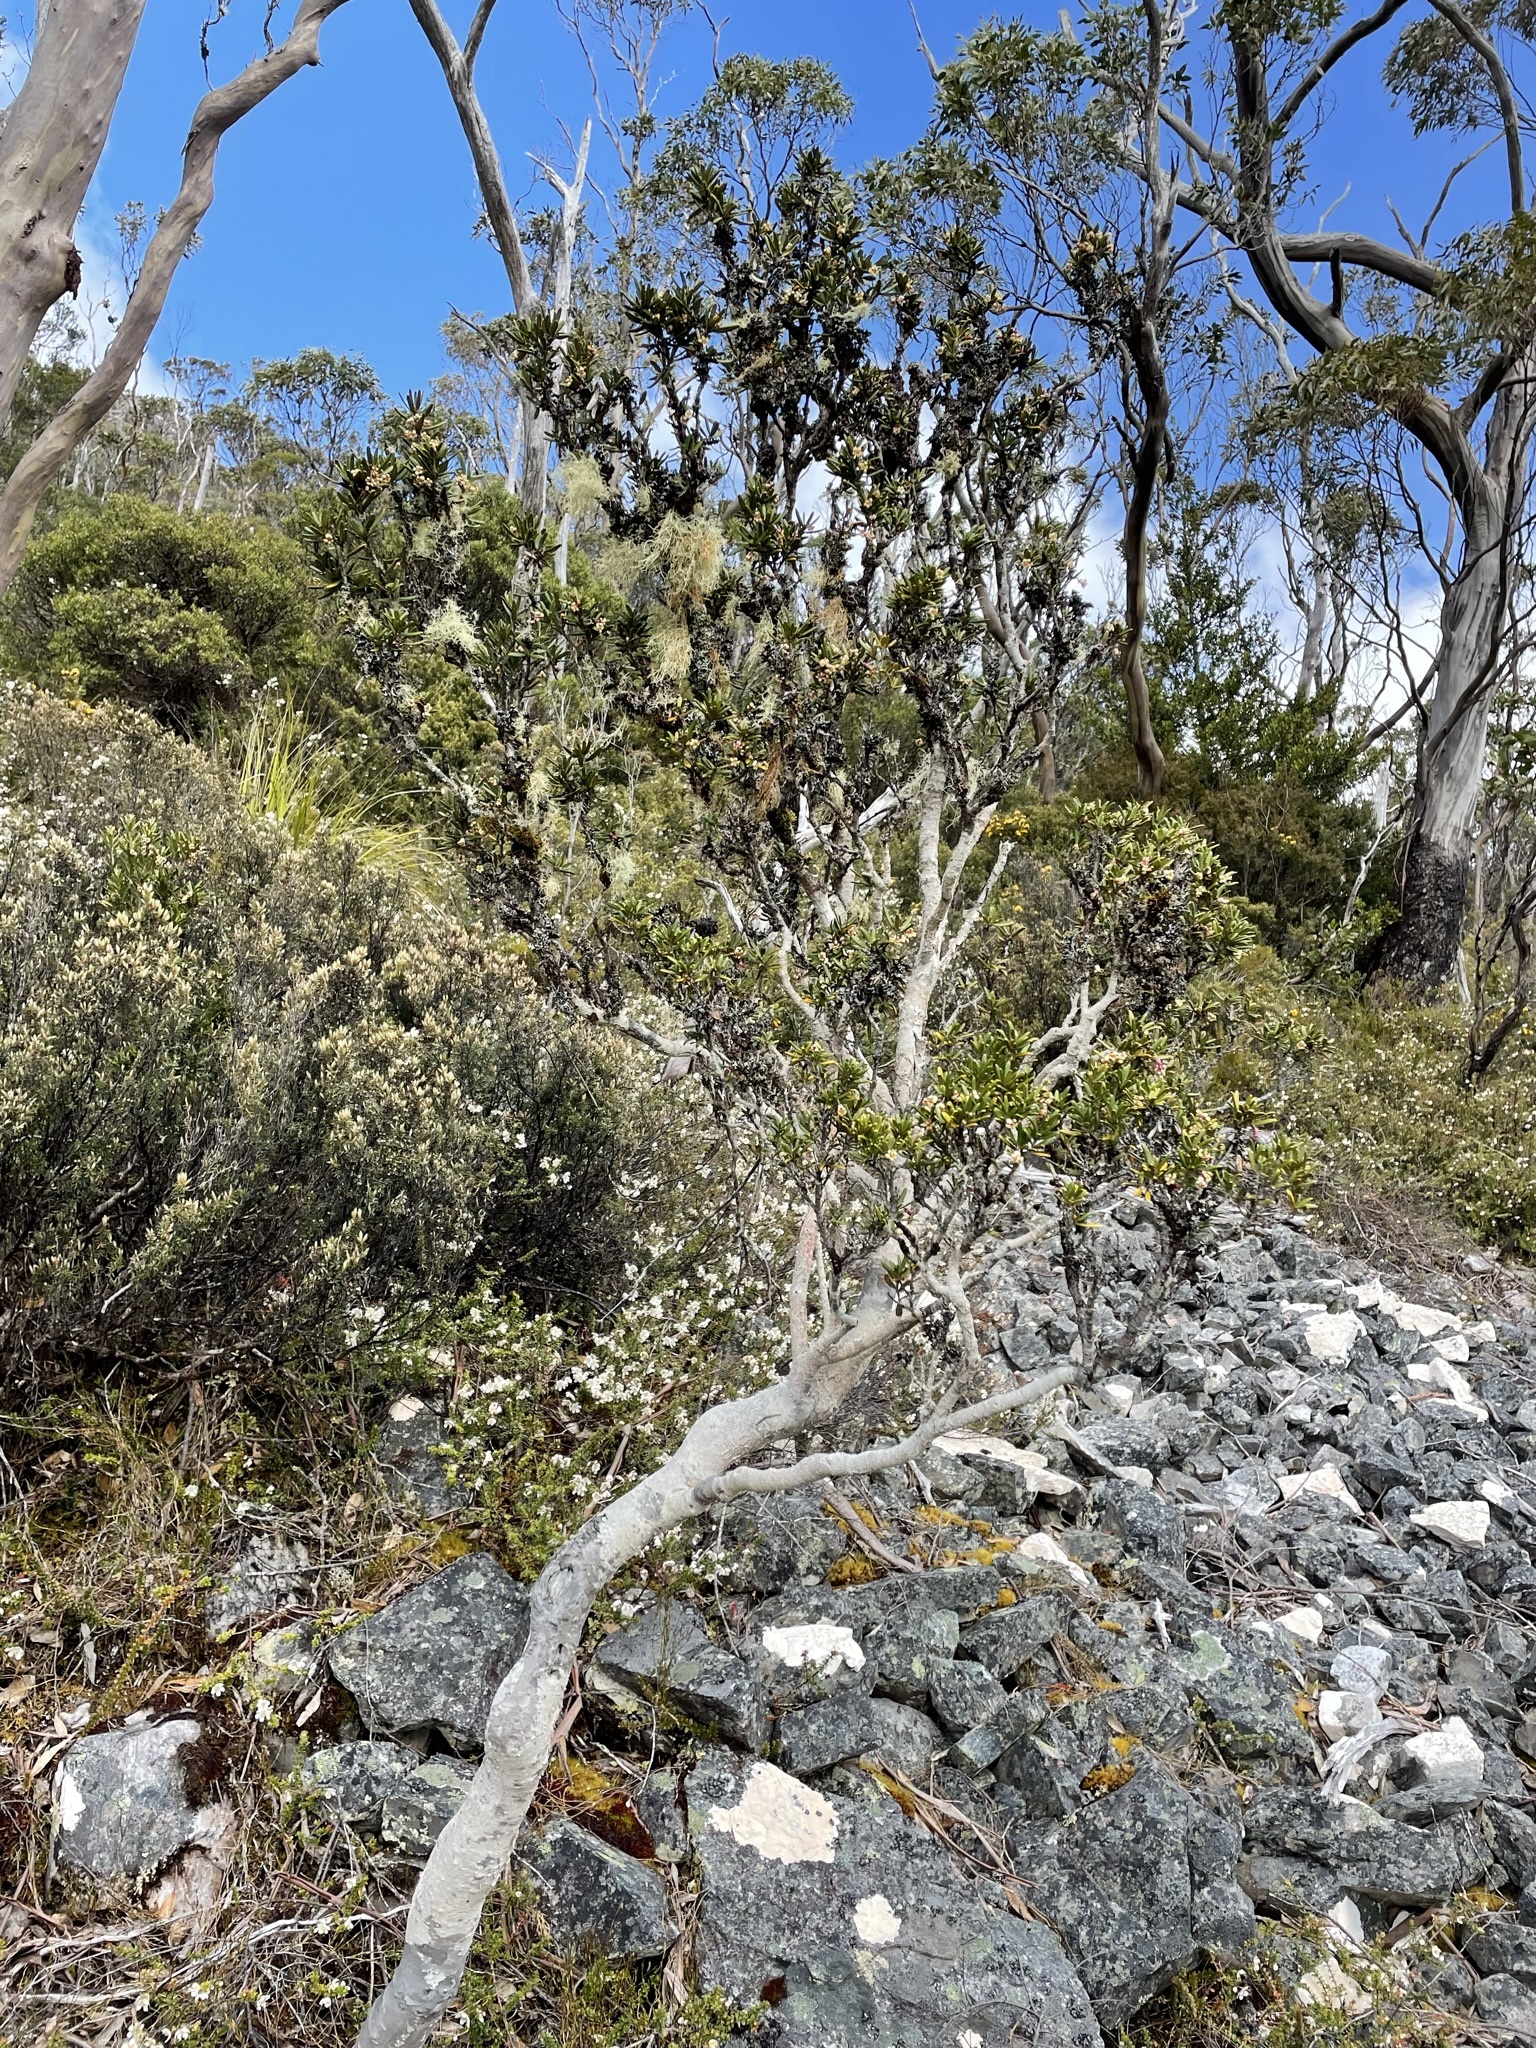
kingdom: Plantae
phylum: Tracheophyta
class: Magnoliopsida
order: Apiales
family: Pittosporaceae
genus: Pittosporum
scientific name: Pittosporum bicolor
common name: Tallowwood
